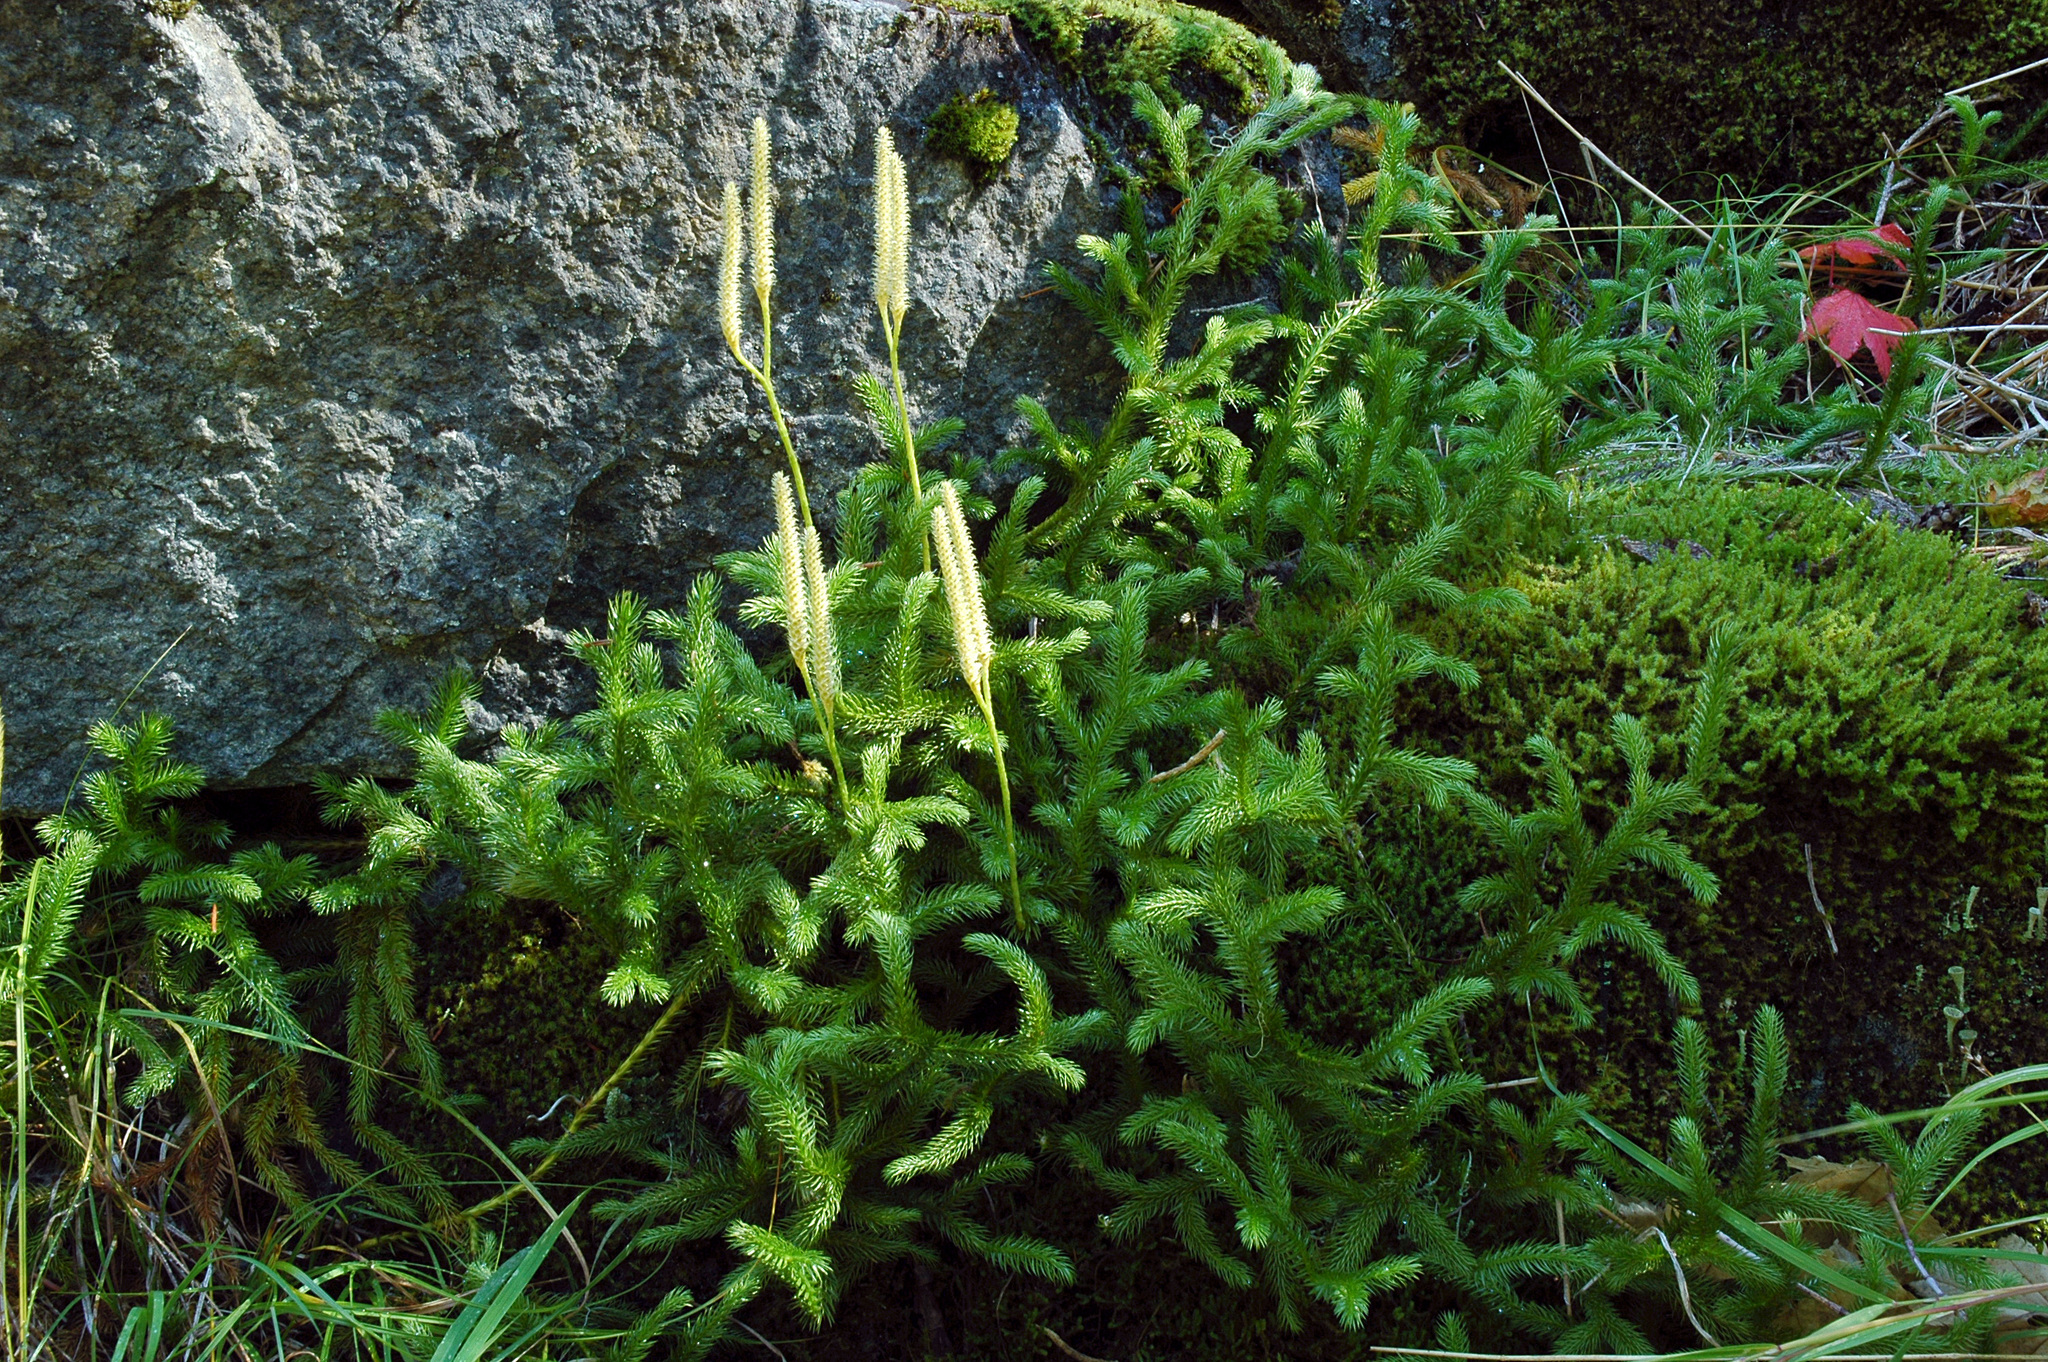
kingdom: Plantae
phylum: Tracheophyta
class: Lycopodiopsida
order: Lycopodiales
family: Lycopodiaceae
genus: Lycopodium
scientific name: Lycopodium clavatum
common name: Stag's-horn clubmoss
